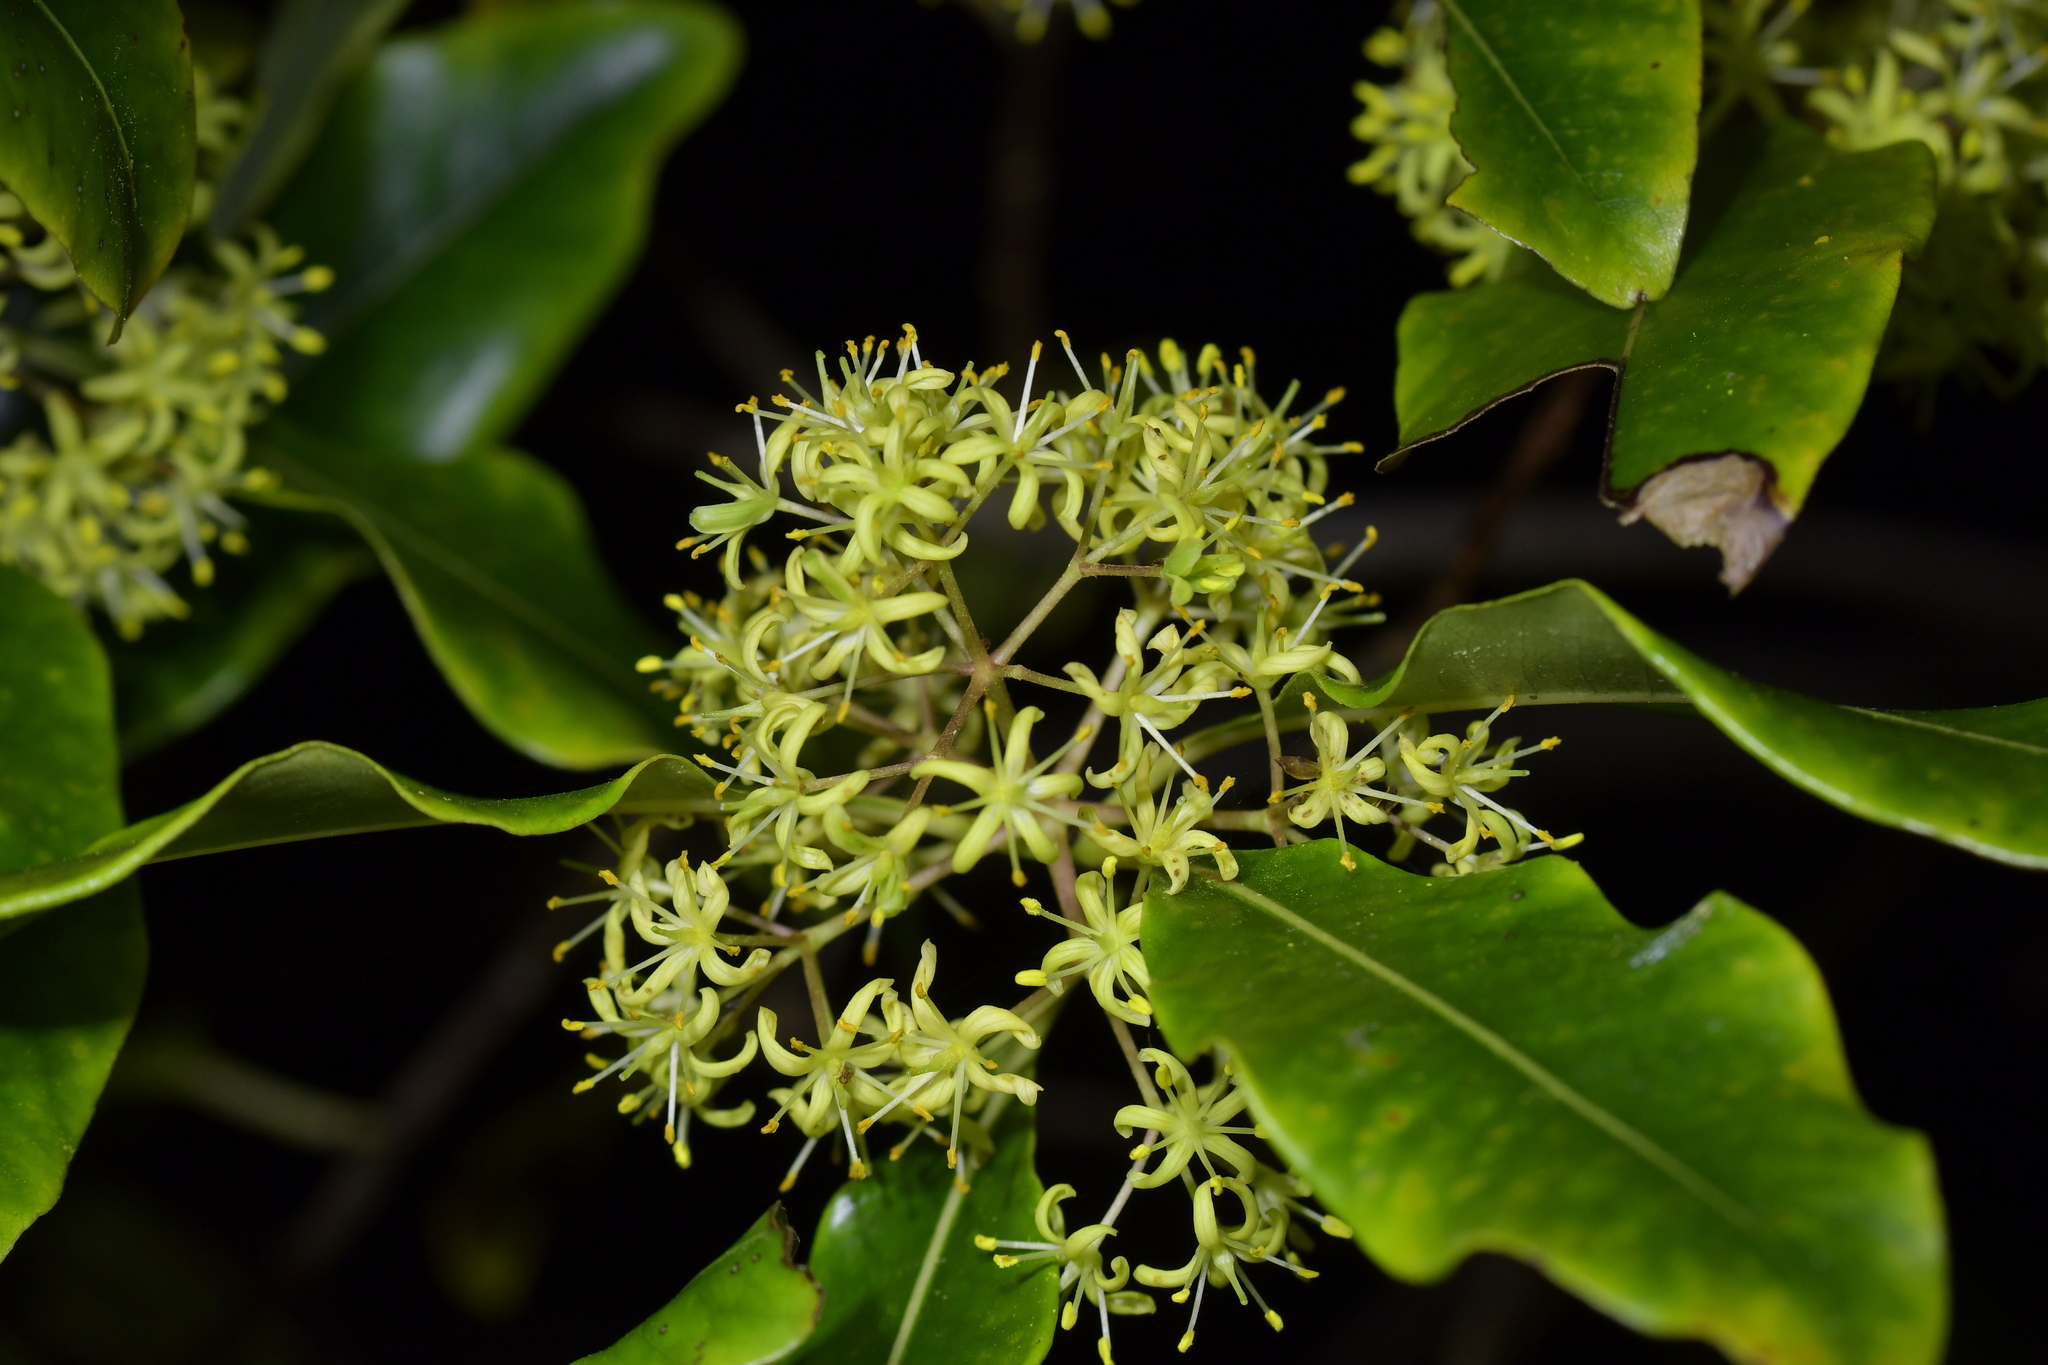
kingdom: Plantae
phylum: Tracheophyta
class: Magnoliopsida
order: Apiales
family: Pittosporaceae
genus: Pittosporum
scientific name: Pittosporum eugenioides
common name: Lemonwood
